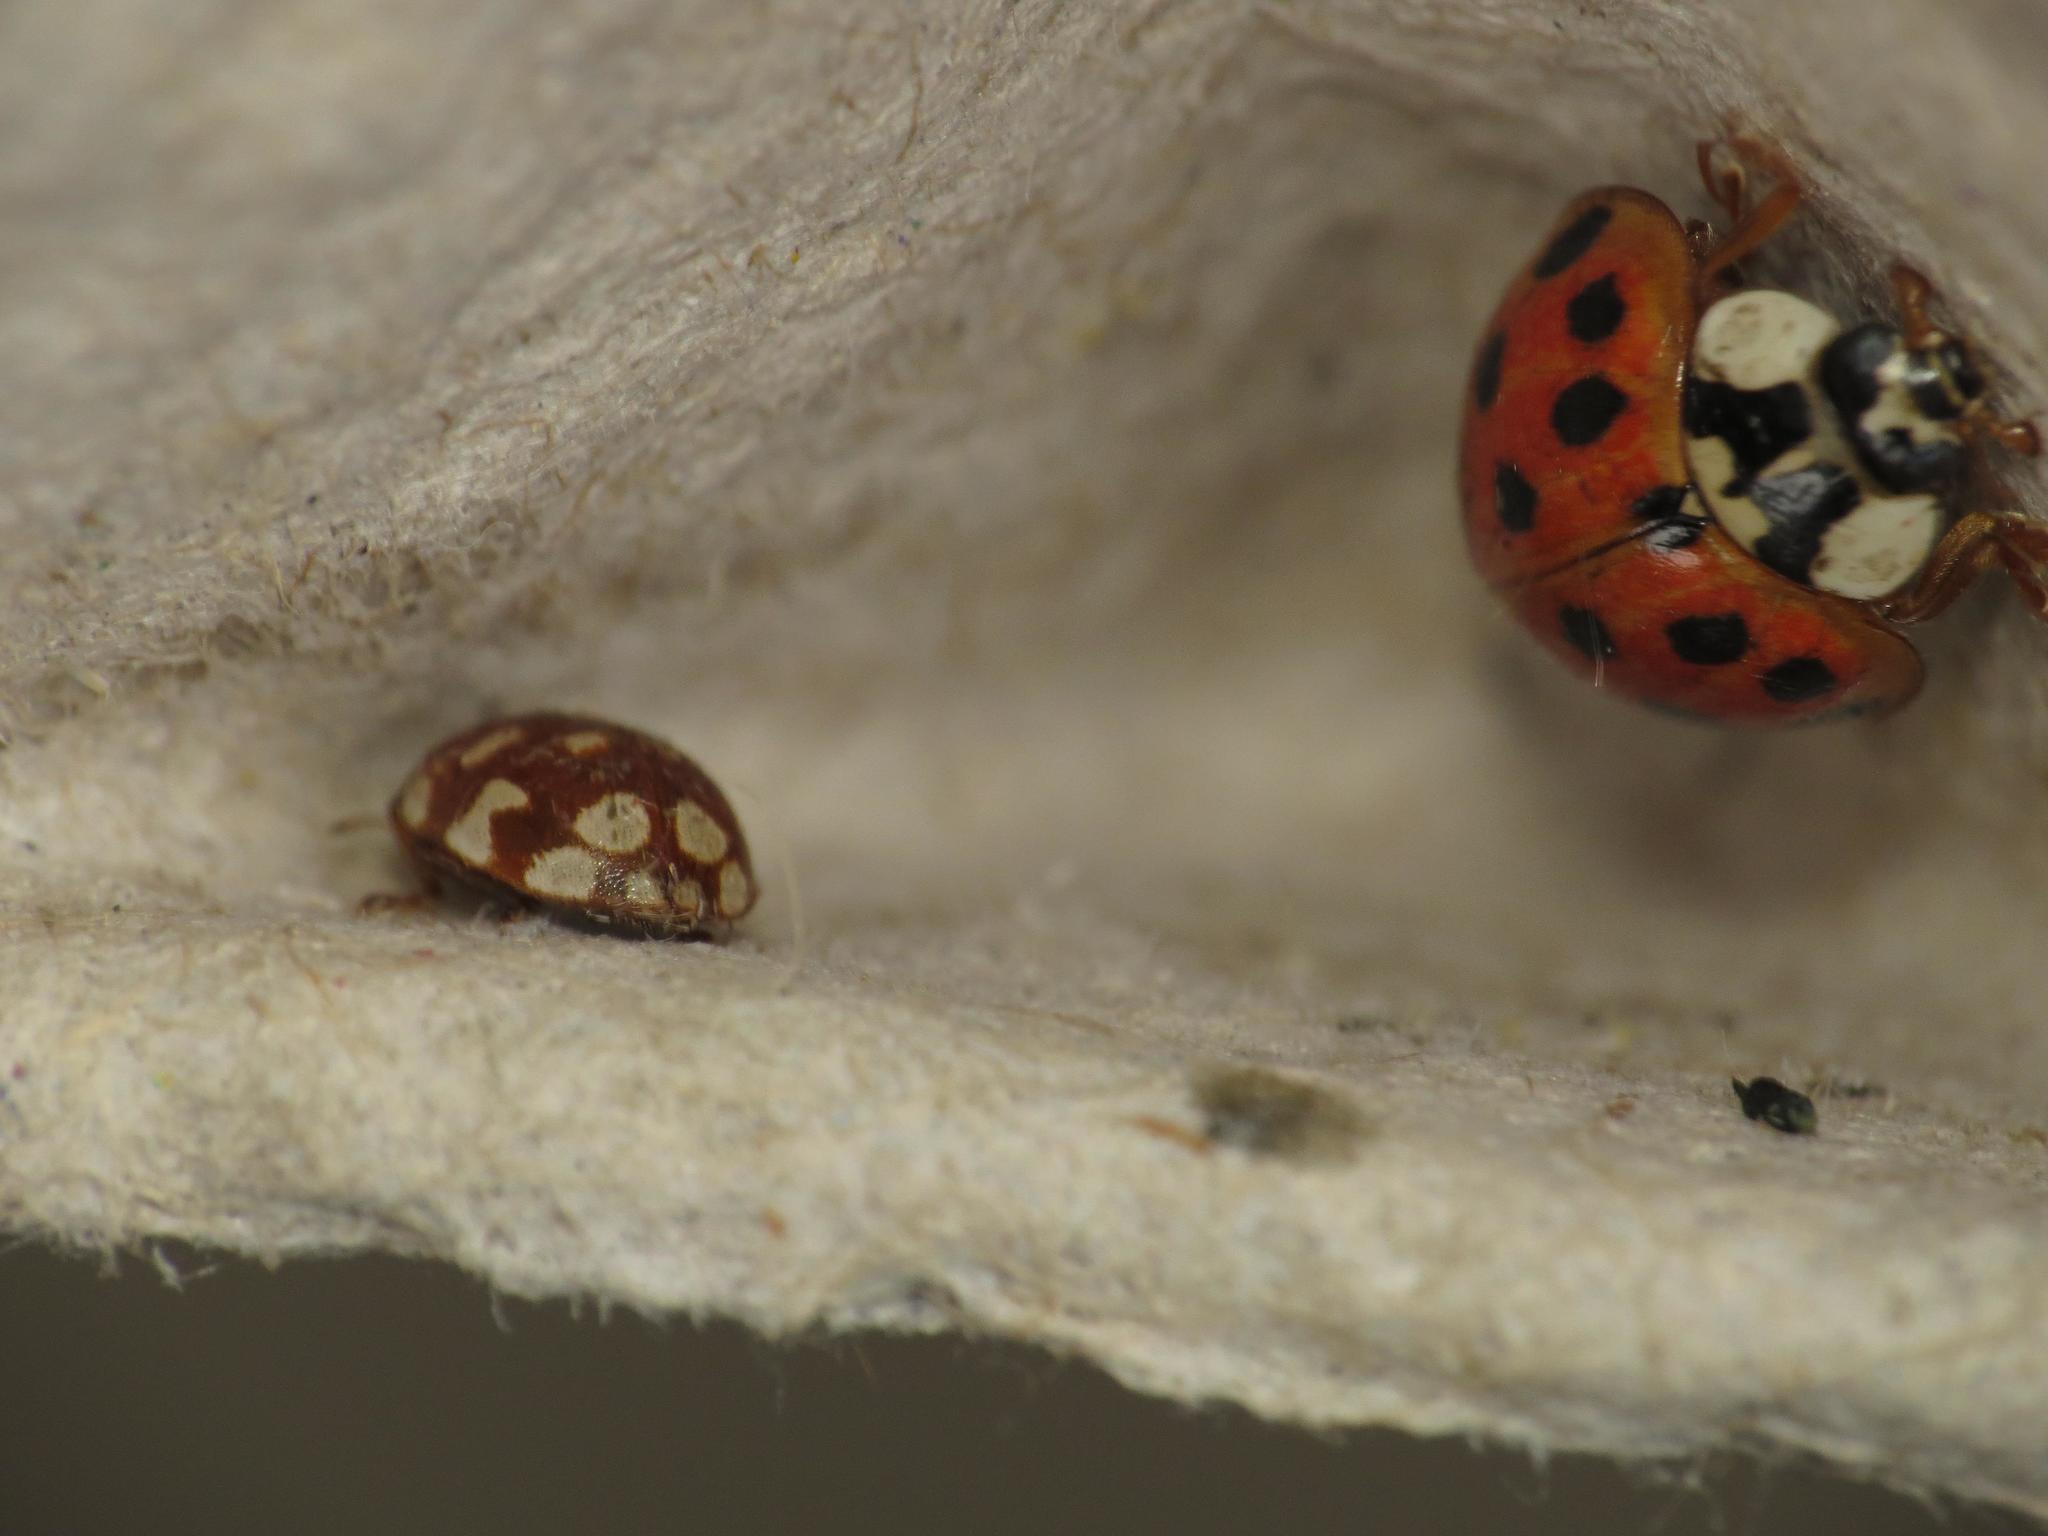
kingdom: Animalia
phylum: Arthropoda
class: Insecta
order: Coleoptera
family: Coccinellidae
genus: Myrrha
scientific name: Myrrha octodecimguttata
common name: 18-spot ladybird
